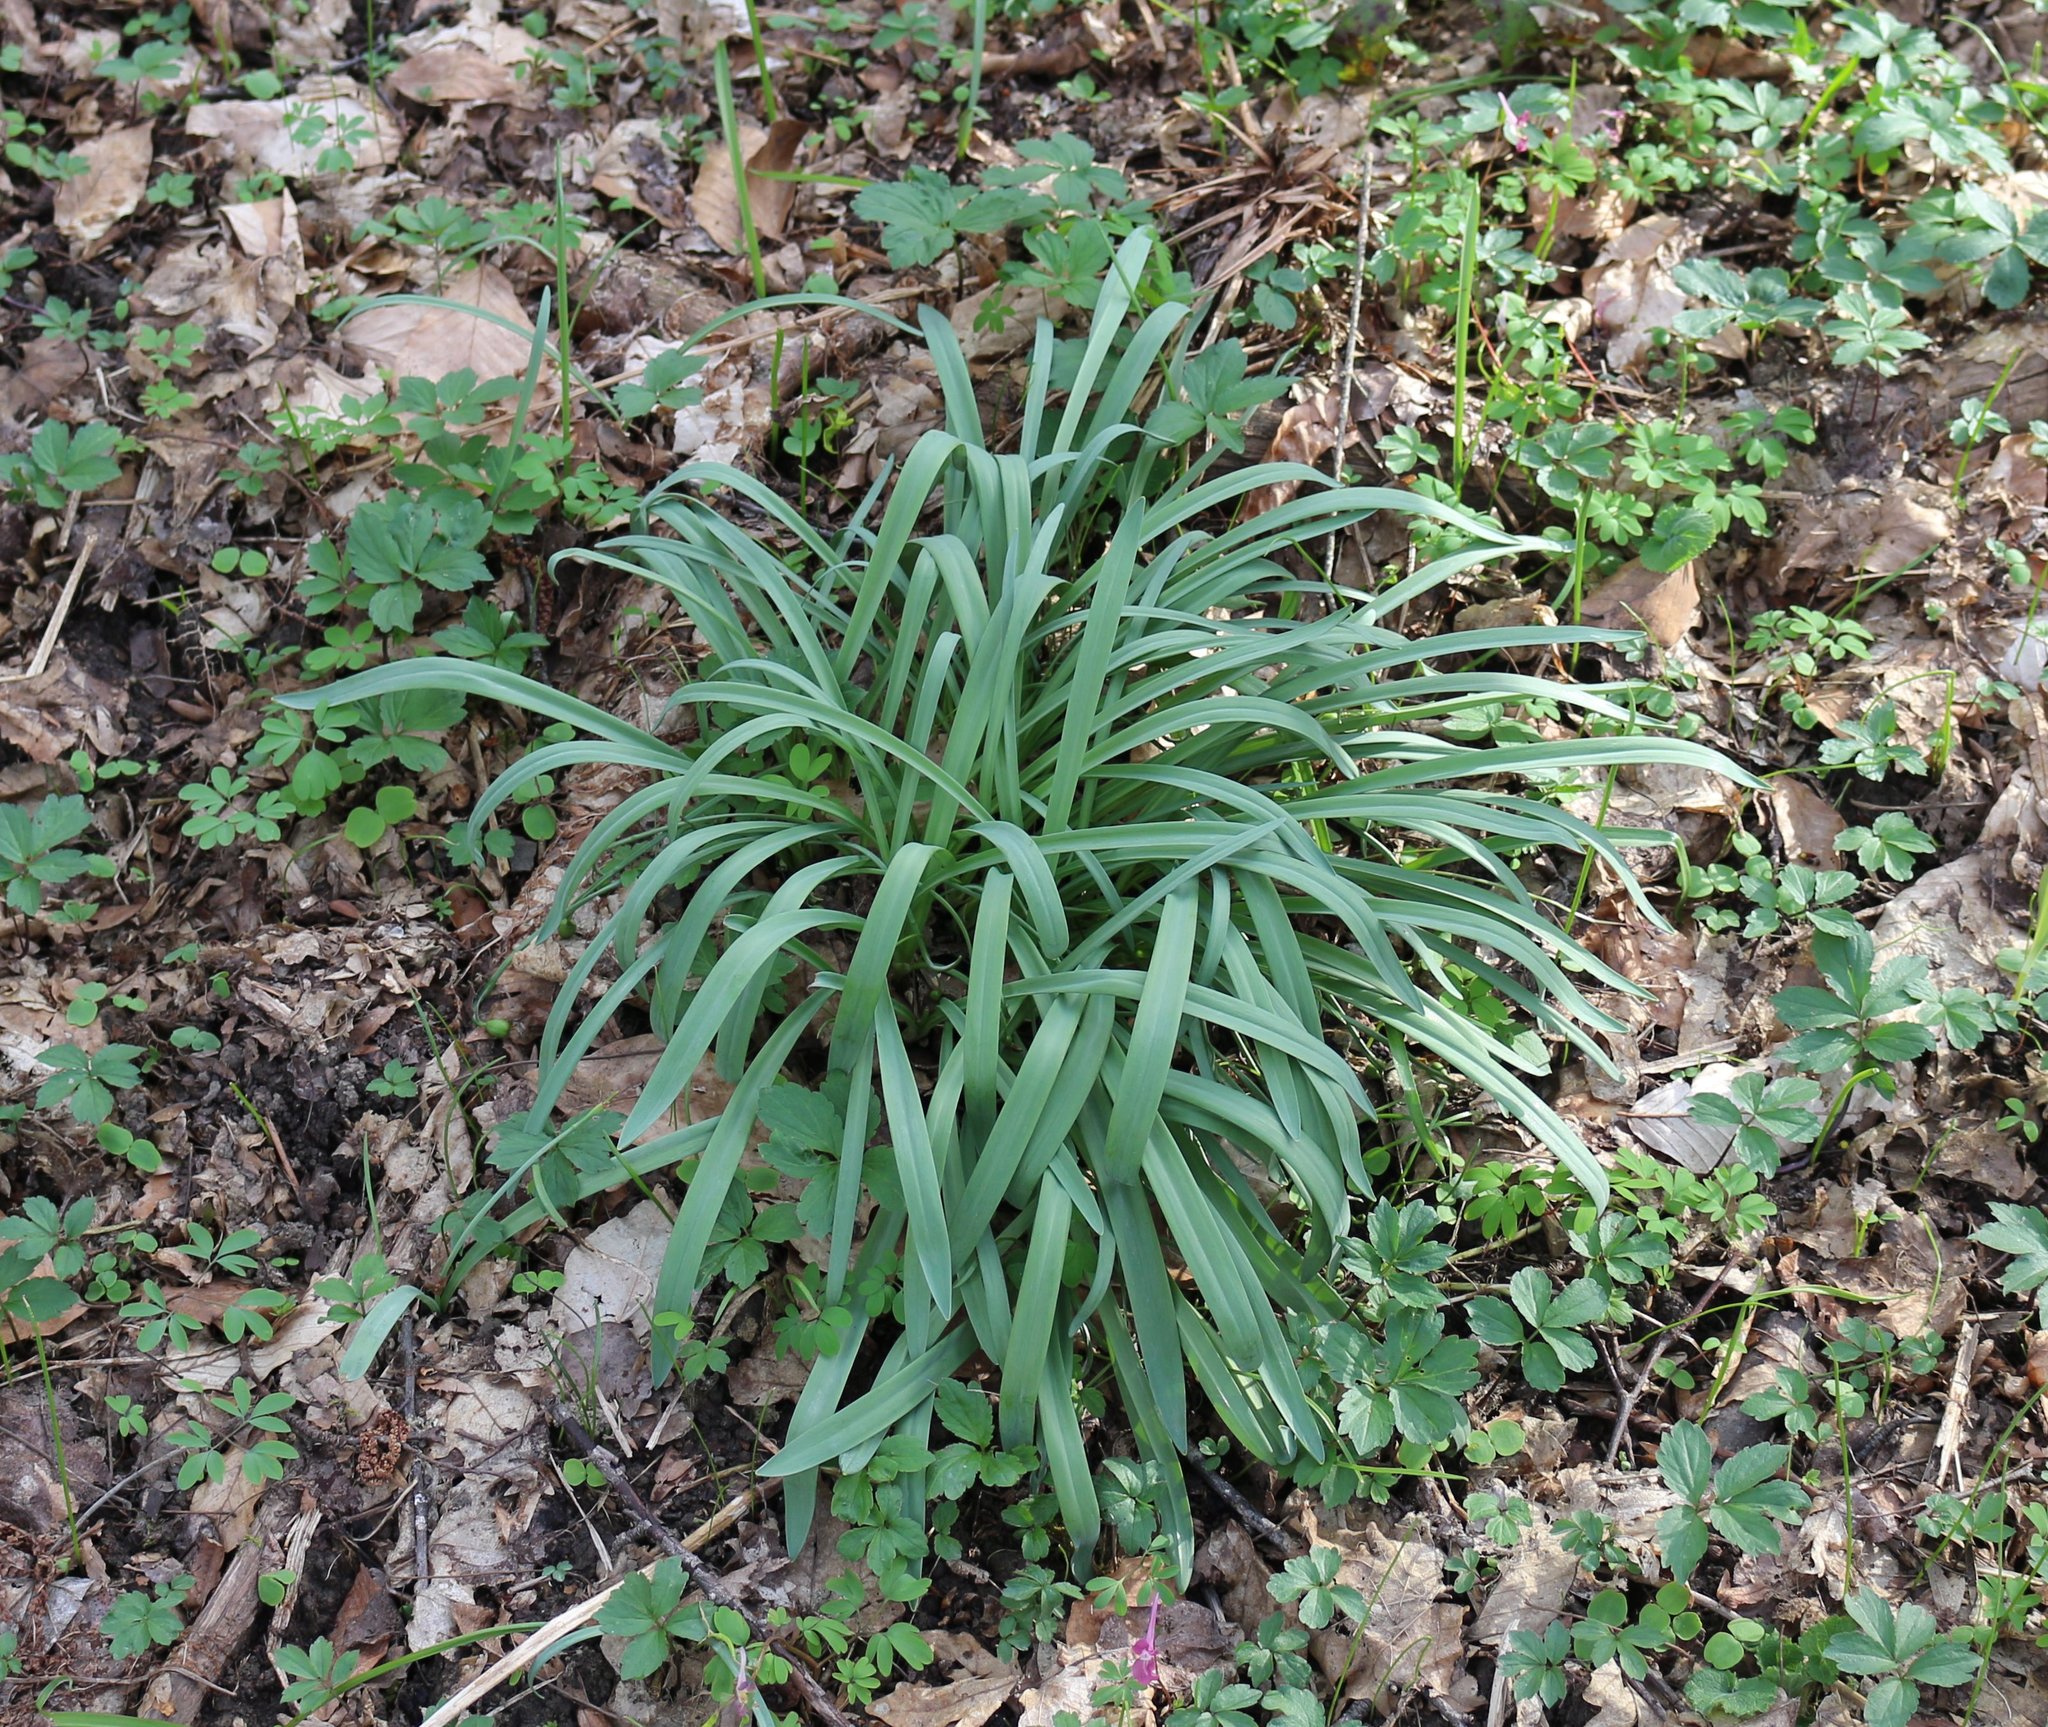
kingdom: Plantae
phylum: Tracheophyta
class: Liliopsida
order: Asparagales
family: Amaryllidaceae
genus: Galanthus
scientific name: Galanthus alpinus
